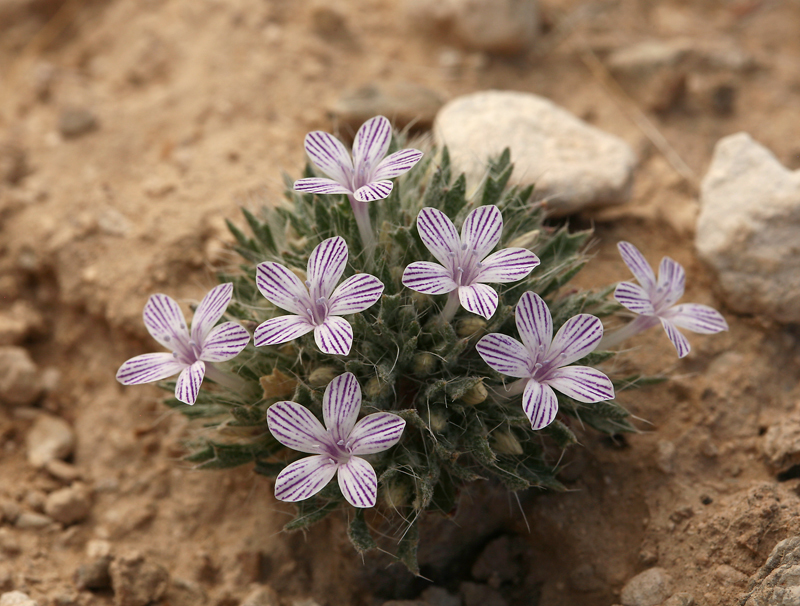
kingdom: Plantae
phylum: Tracheophyta
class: Magnoliopsida
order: Ericales
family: Polemoniaceae
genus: Langloisia
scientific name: Langloisia setosissima
